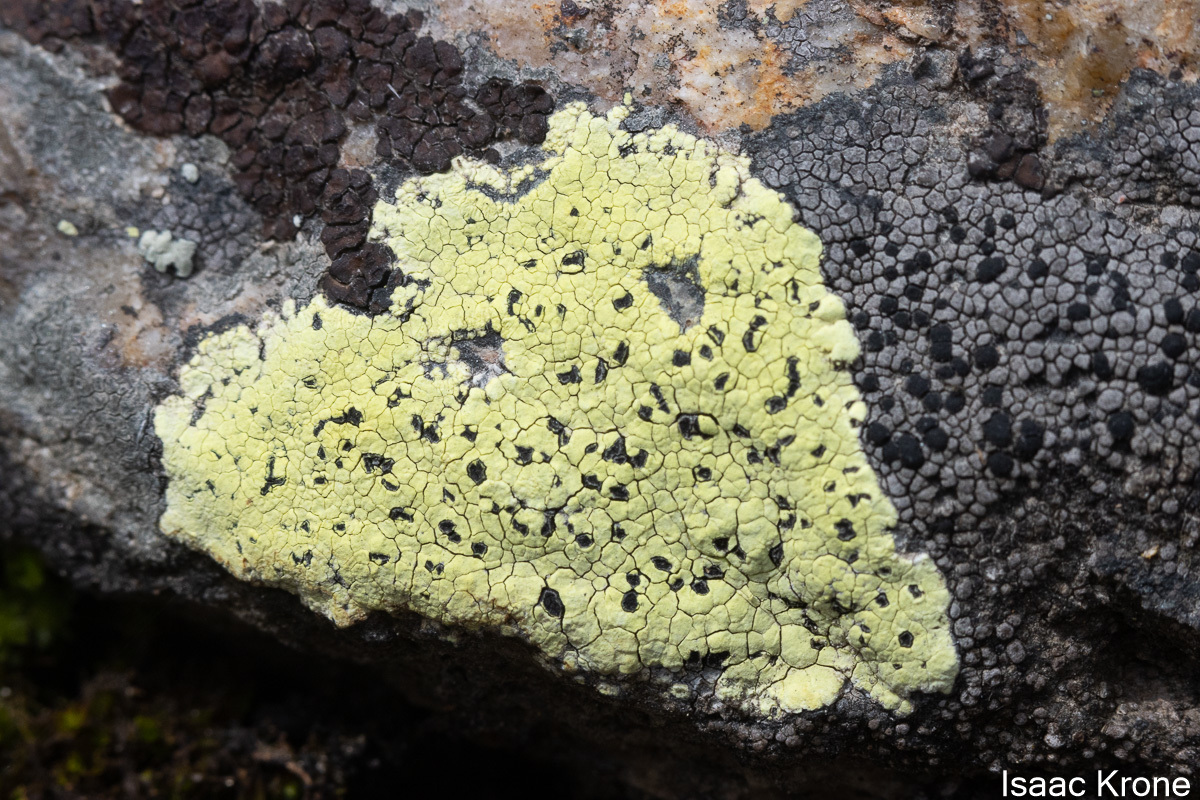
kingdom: Fungi
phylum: Ascomycota
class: Lecanoromycetes
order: Rhizocarpales
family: Rhizocarpaceae
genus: Rhizocarpon
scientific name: Rhizocarpon geographicum
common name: Yellow map lichen
